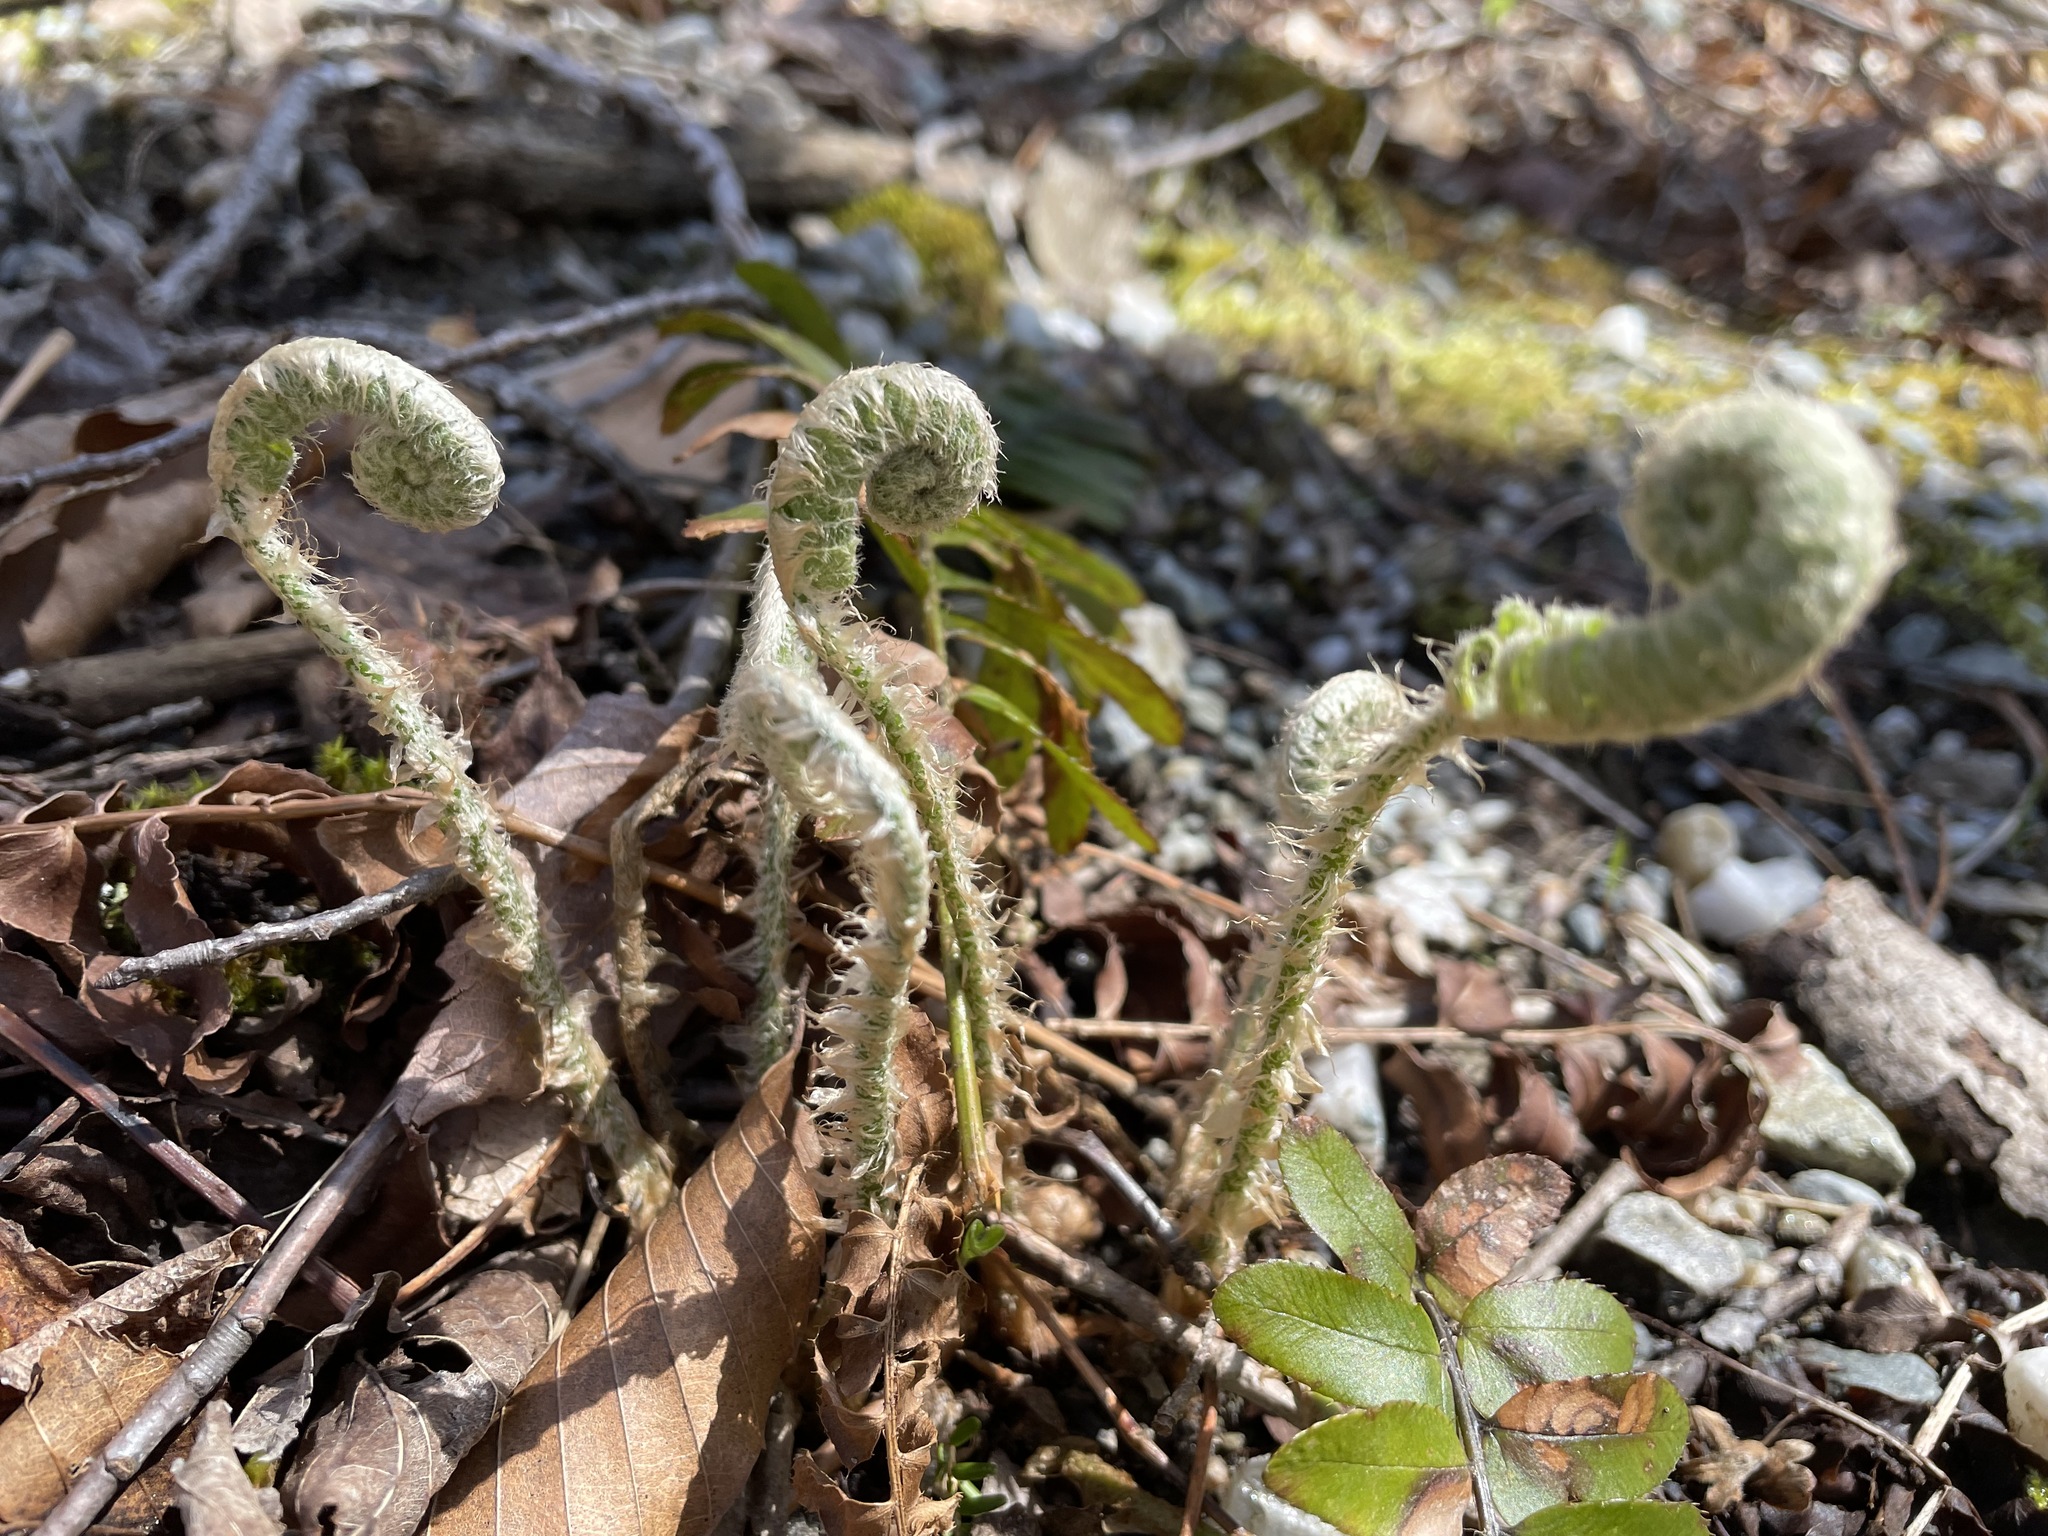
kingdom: Plantae
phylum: Tracheophyta
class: Polypodiopsida
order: Polypodiales
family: Dryopteridaceae
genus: Polystichum
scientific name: Polystichum acrostichoides
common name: Christmas fern
